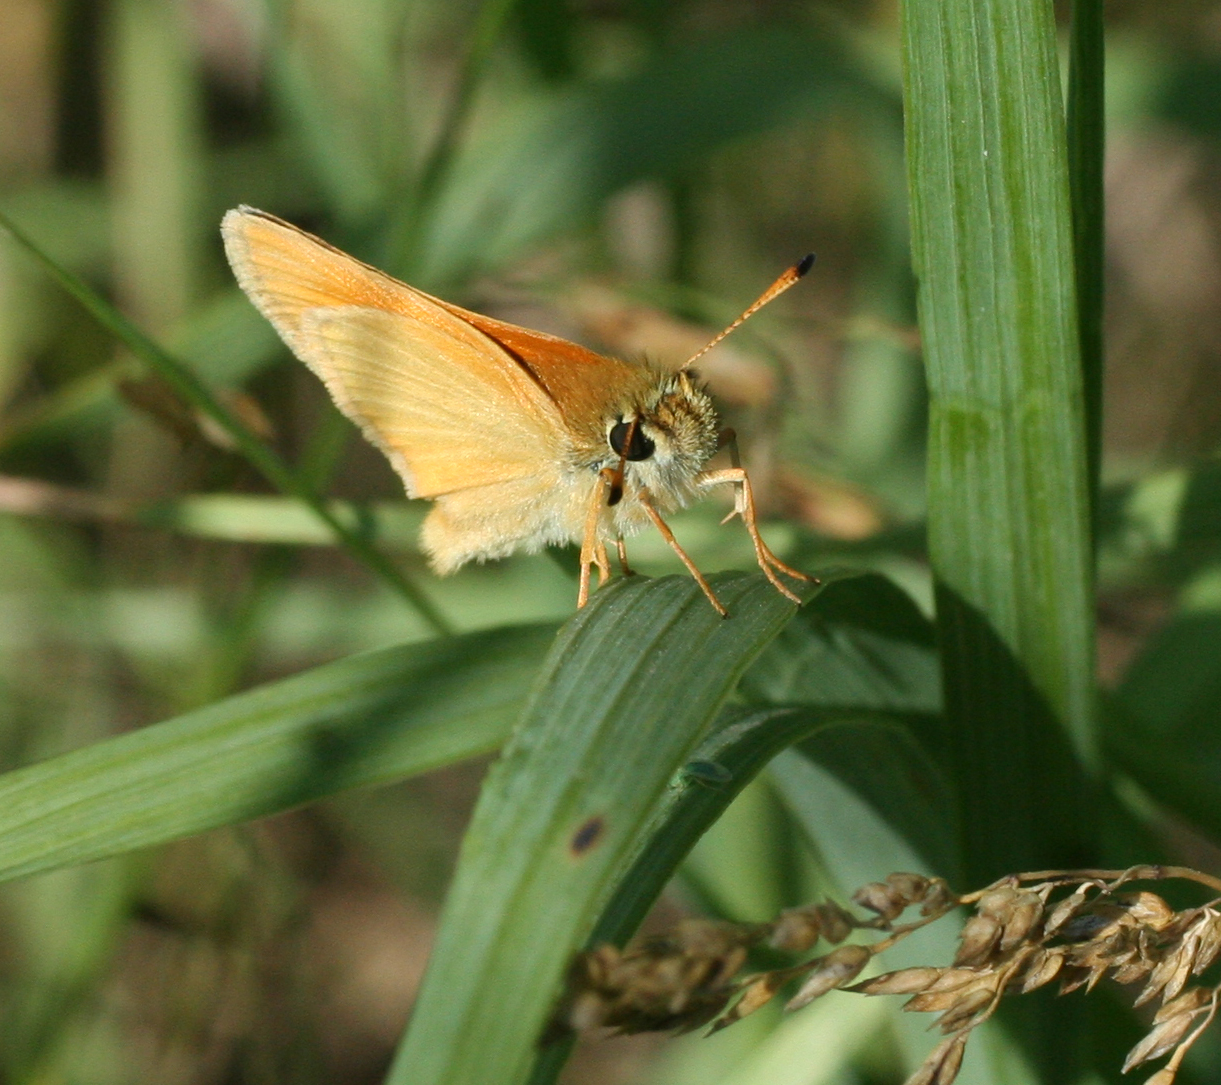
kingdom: Animalia
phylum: Arthropoda
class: Insecta
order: Lepidoptera
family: Hesperiidae
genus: Thymelicus
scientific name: Thymelicus lineola
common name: Essex skipper
